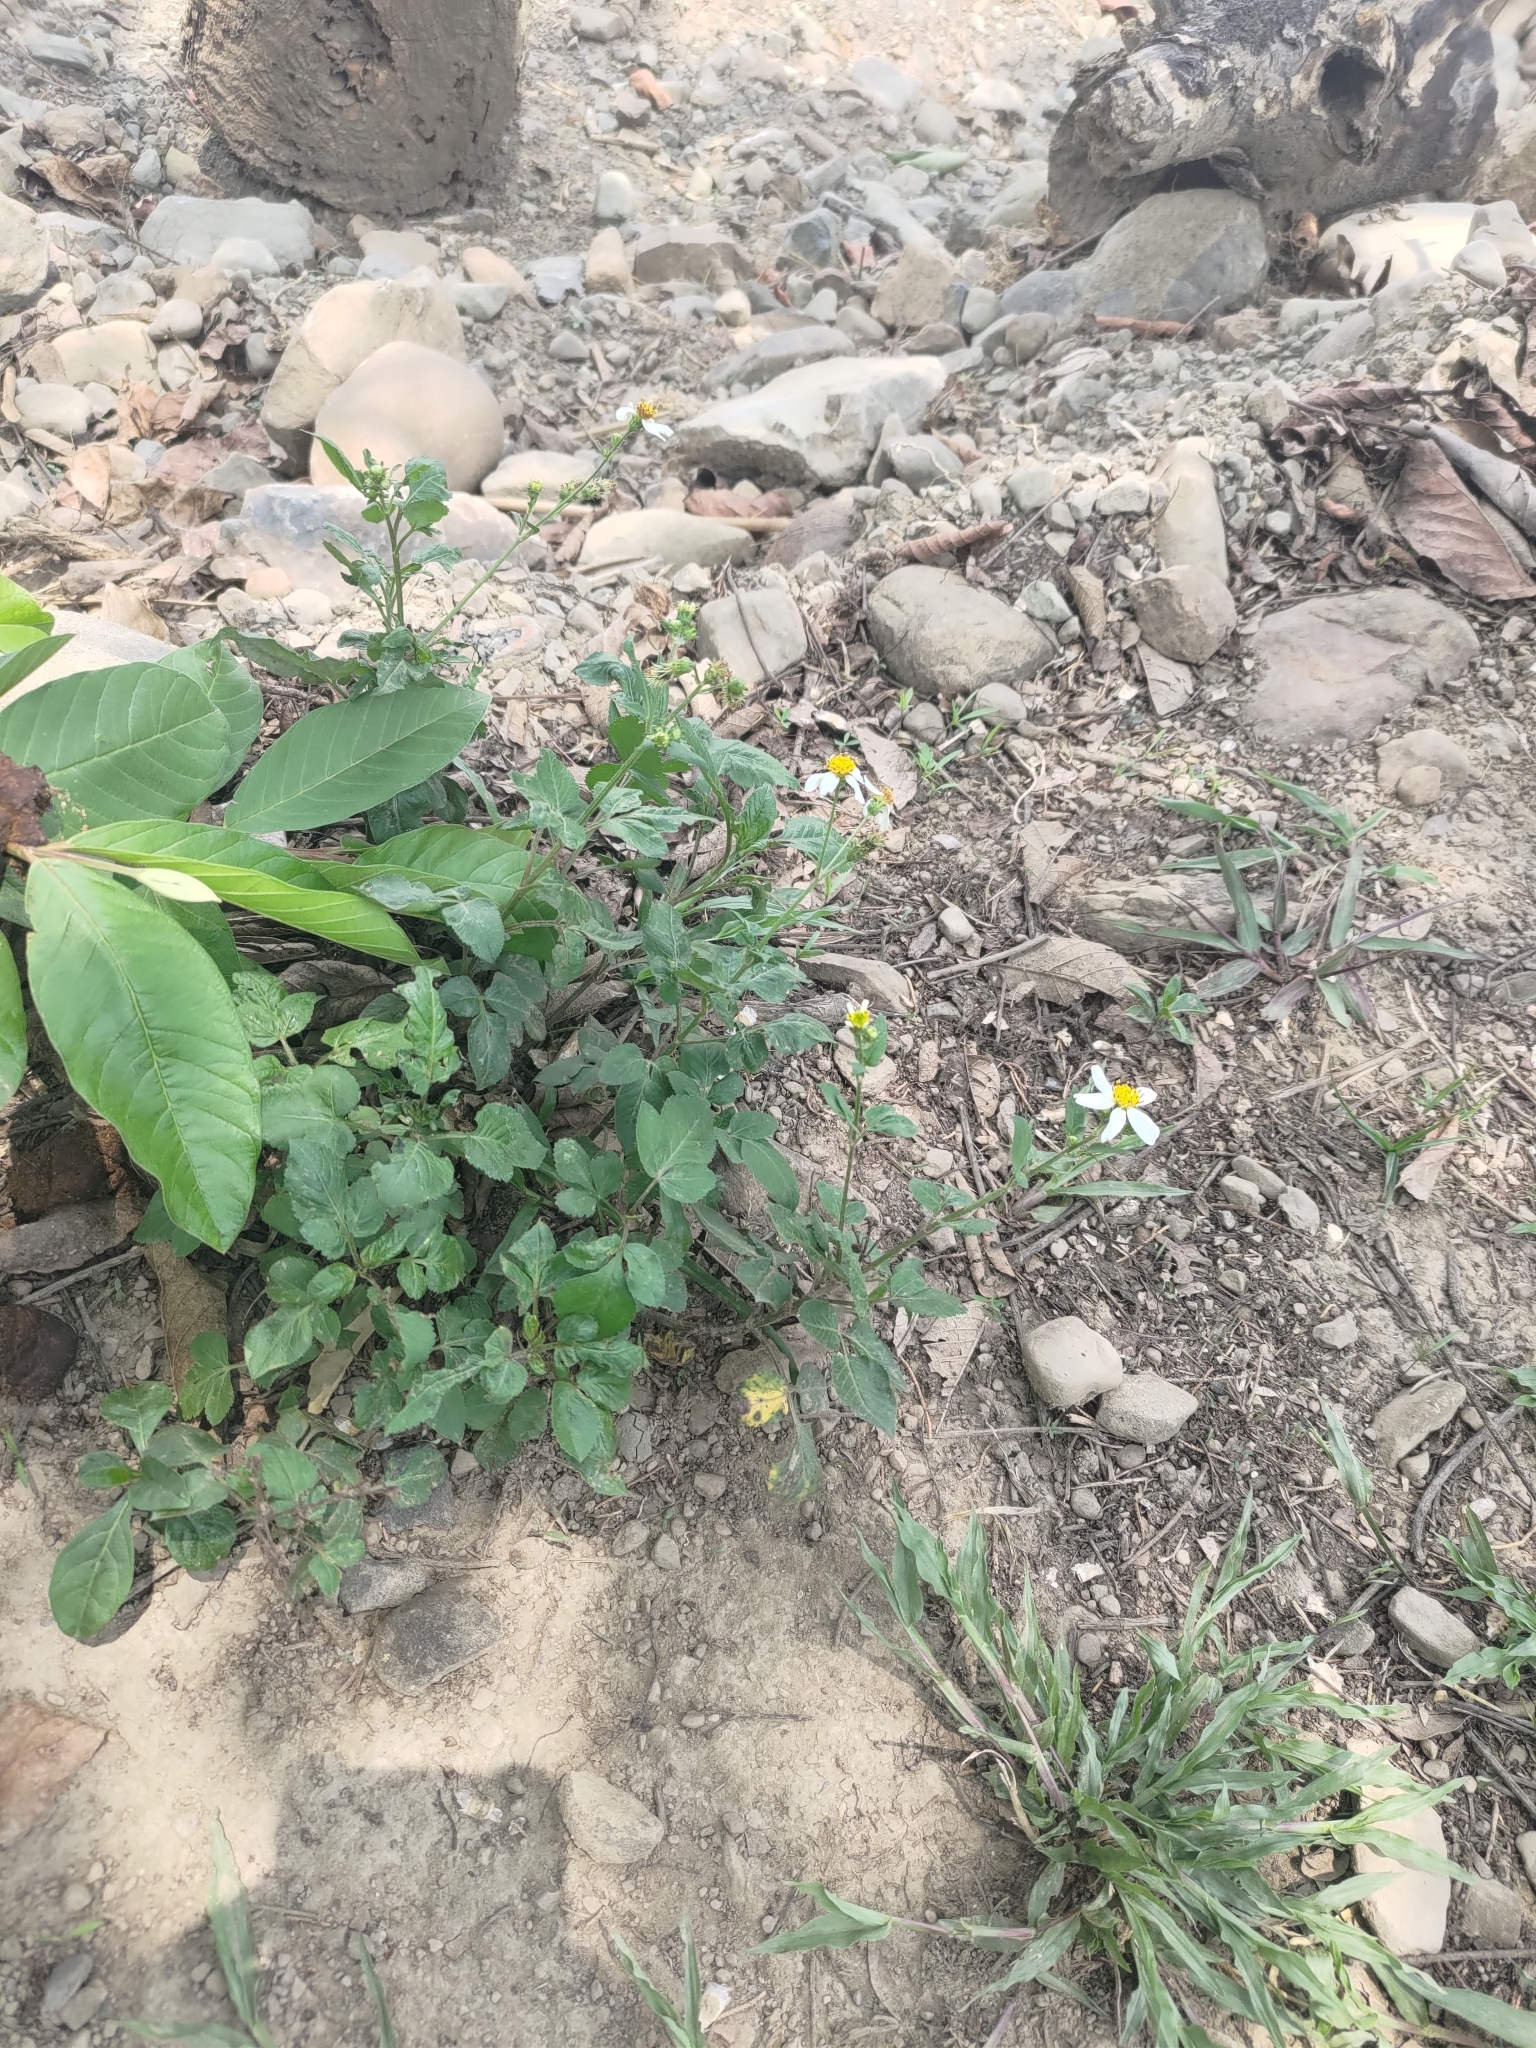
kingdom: Plantae
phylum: Tracheophyta
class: Magnoliopsida
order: Asterales
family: Asteraceae
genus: Bidens
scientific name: Bidens alba
